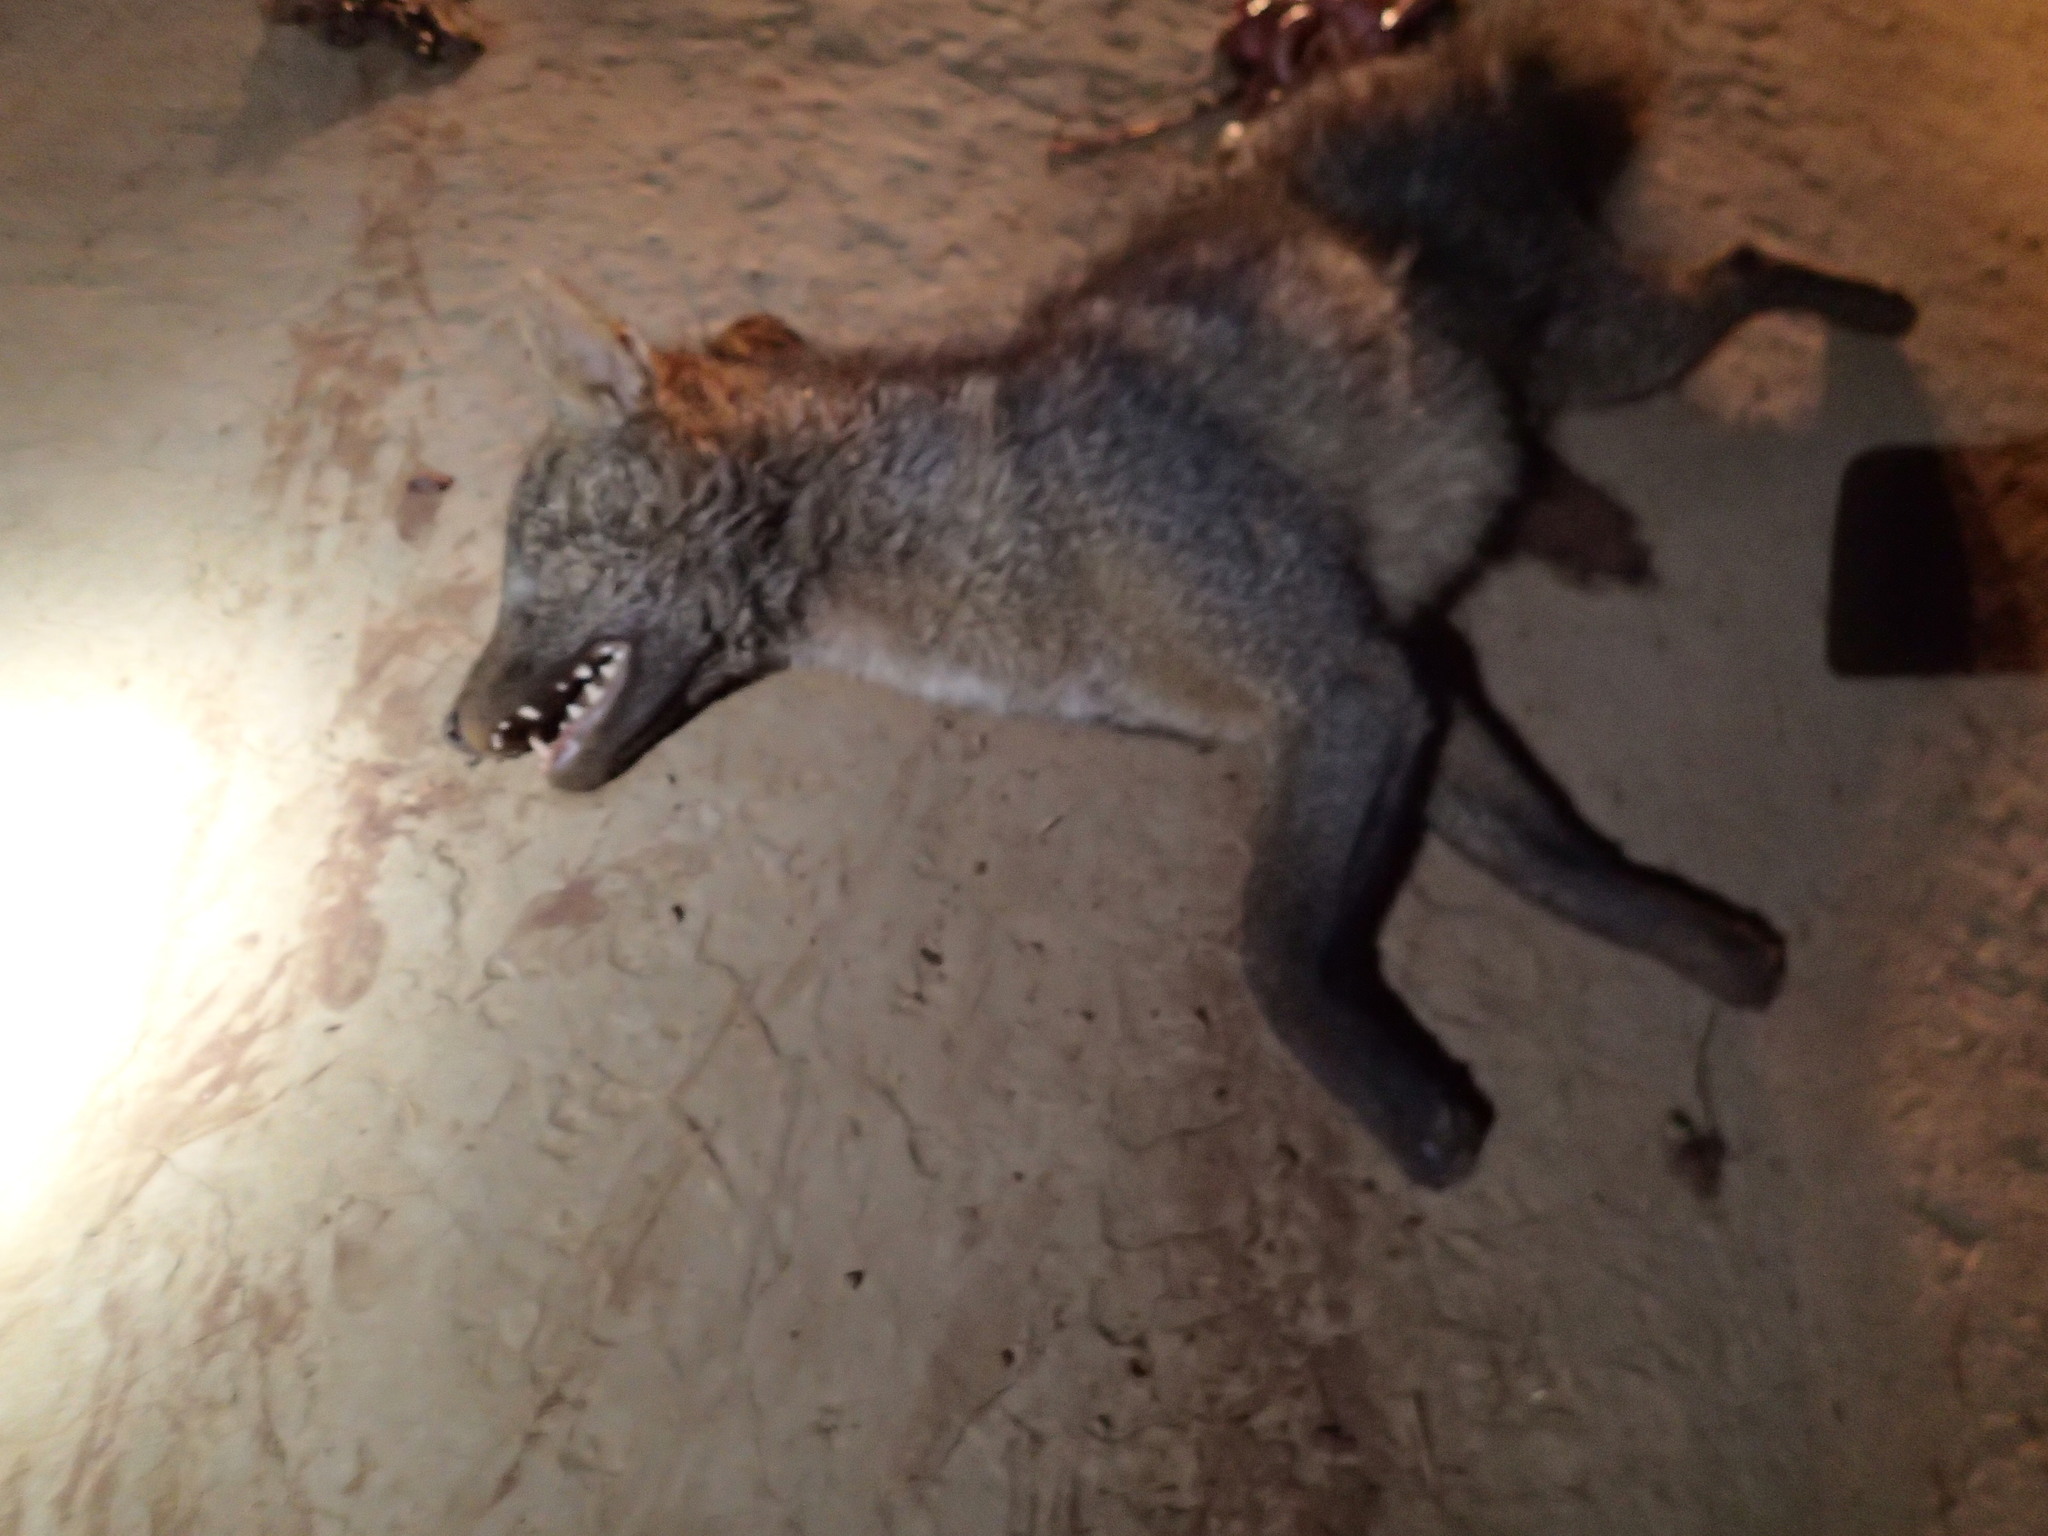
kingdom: Animalia
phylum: Chordata
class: Mammalia
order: Carnivora
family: Canidae
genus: Cerdocyon
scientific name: Cerdocyon thous
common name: Crab-eating fox
